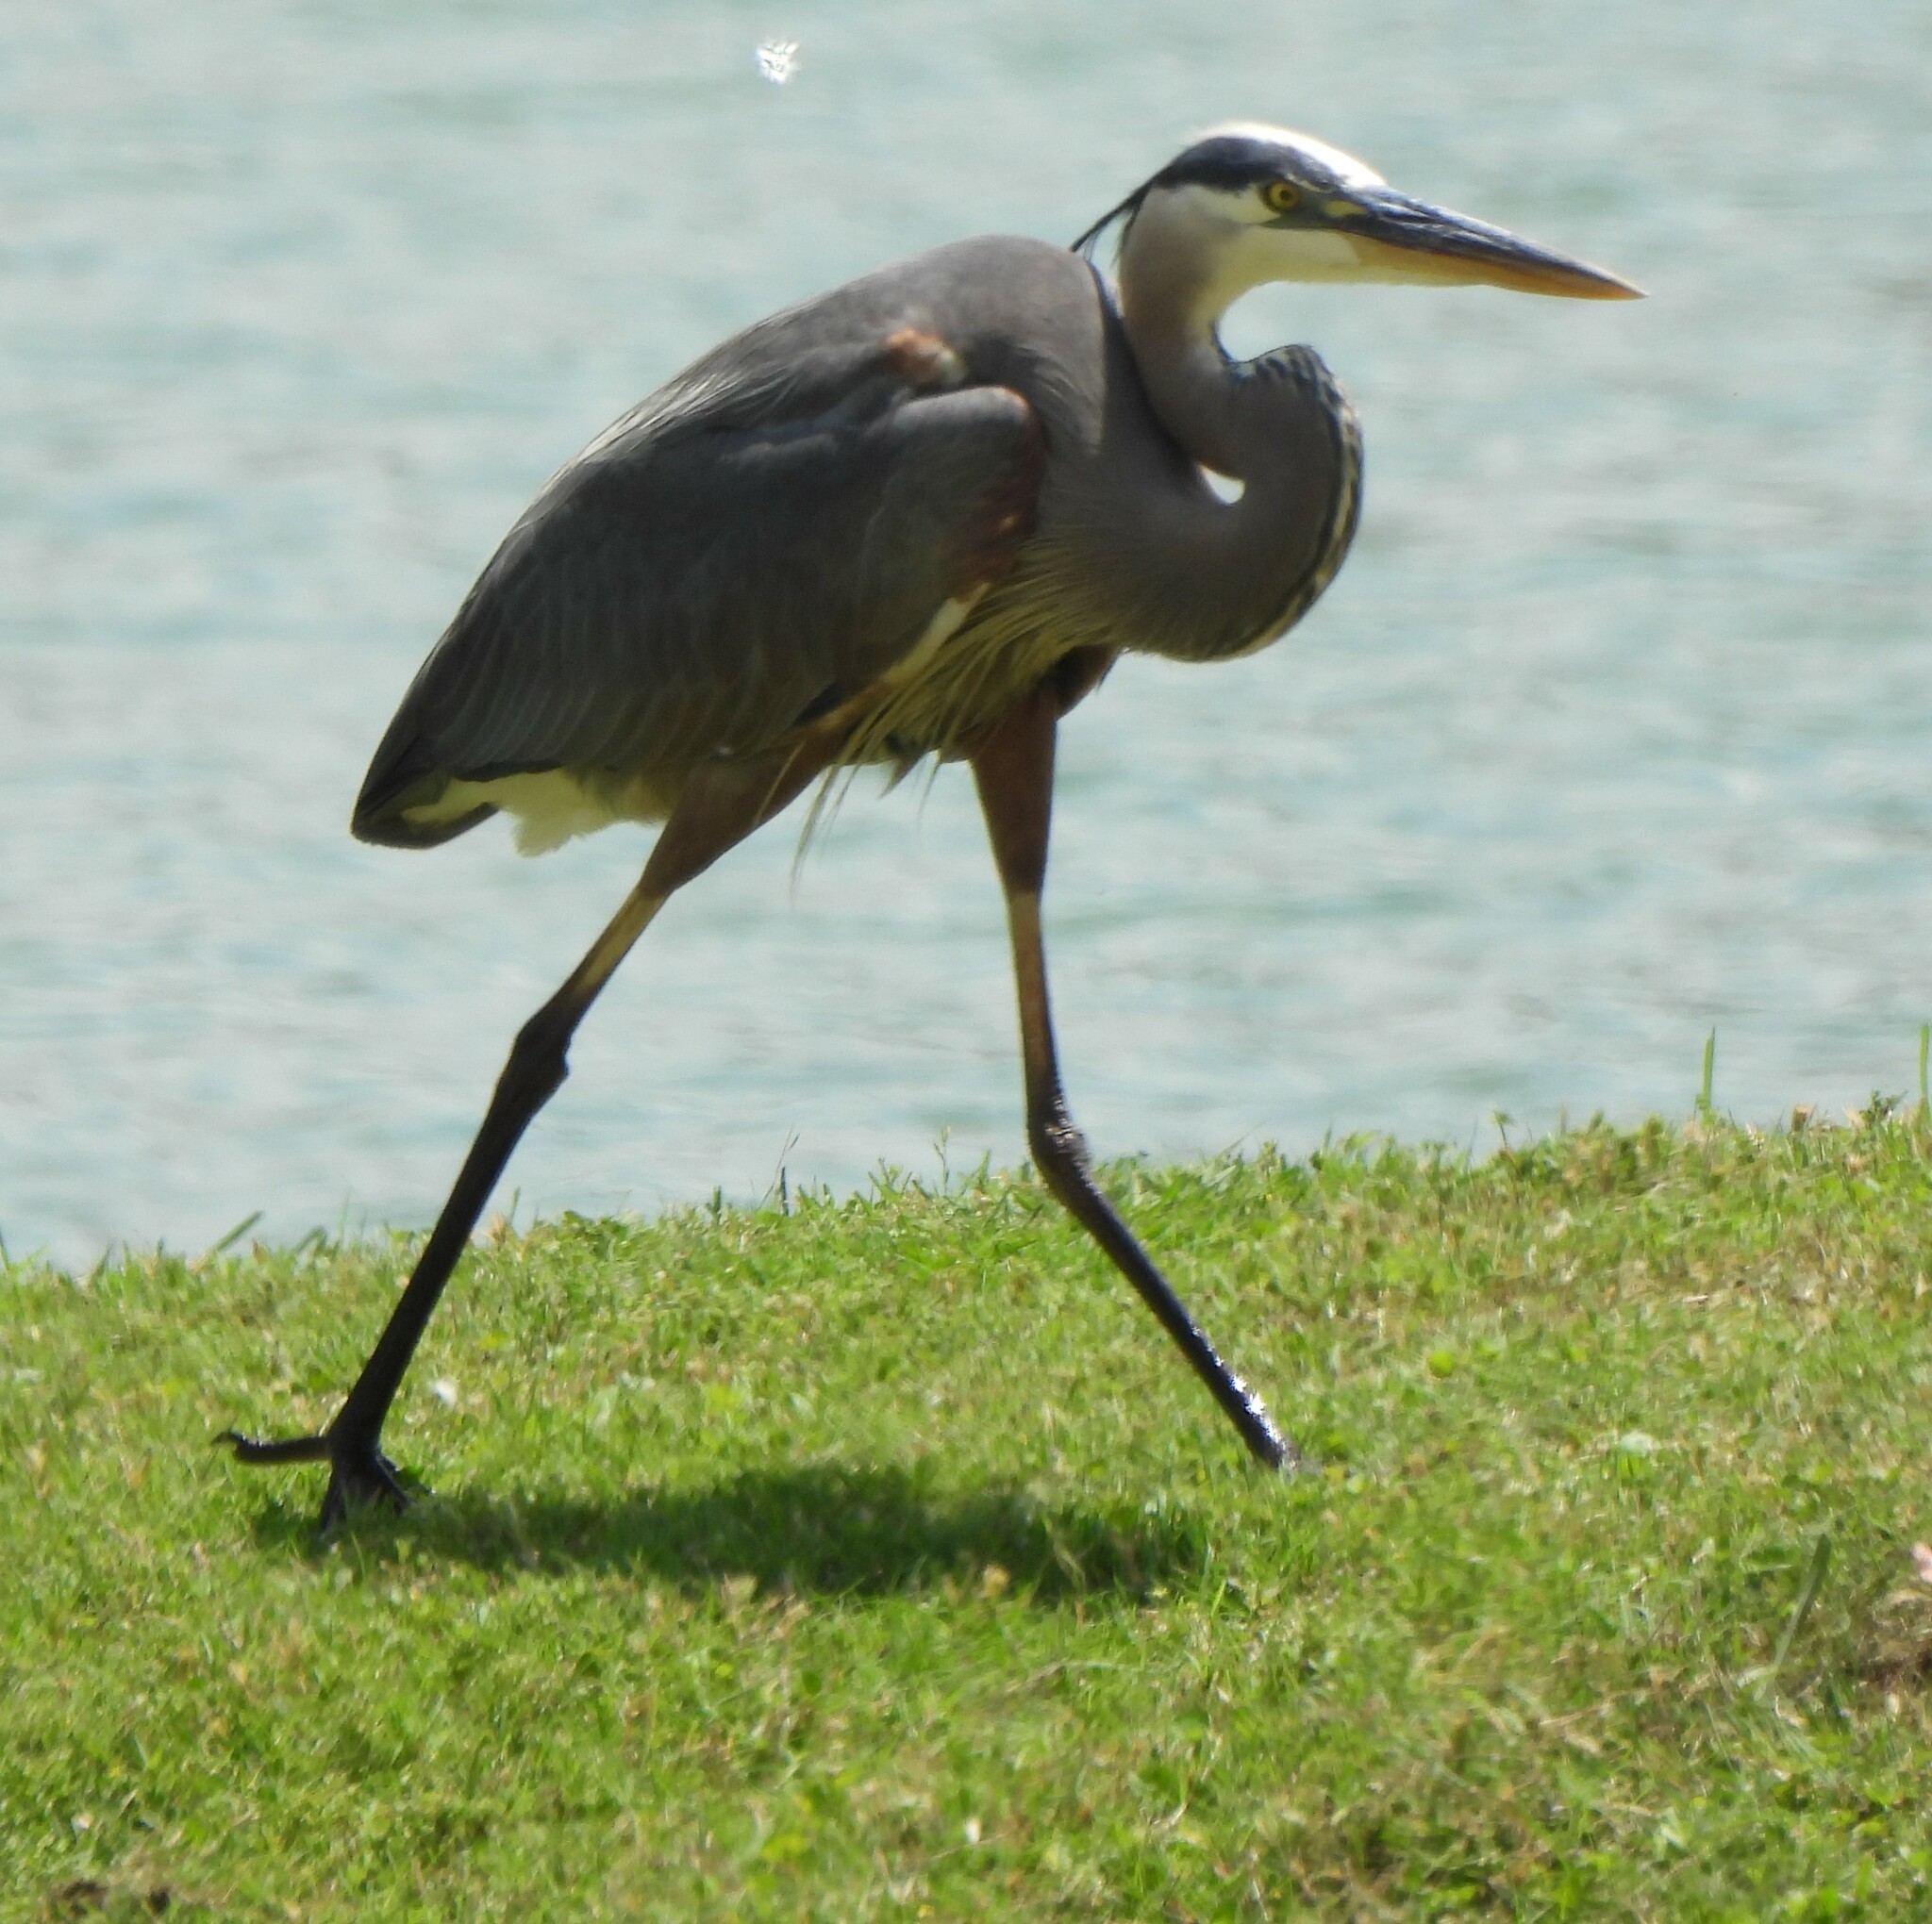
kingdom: Animalia
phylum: Chordata
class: Aves
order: Pelecaniformes
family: Ardeidae
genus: Ardea
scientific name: Ardea herodias
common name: Great blue heron
